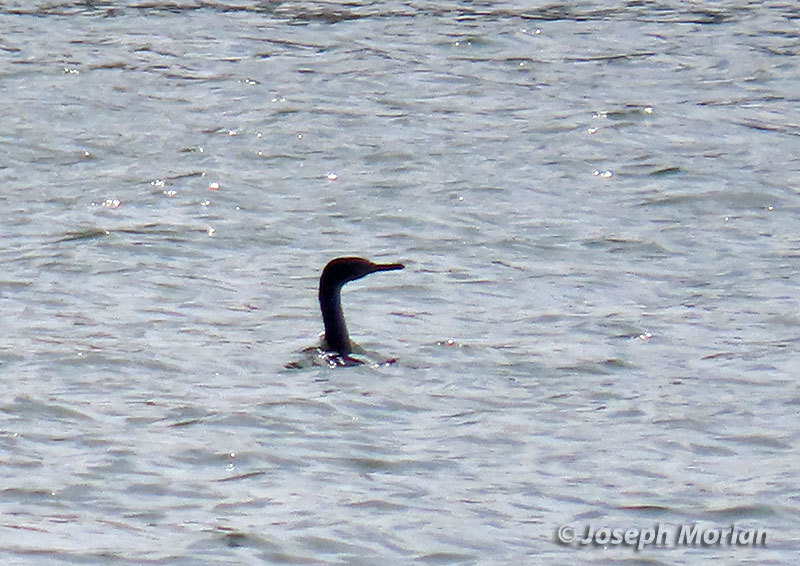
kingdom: Animalia
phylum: Chordata
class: Aves
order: Suliformes
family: Phalacrocoracidae
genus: Phalacrocorax
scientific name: Phalacrocorax pelagicus
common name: Pelagic cormorant
